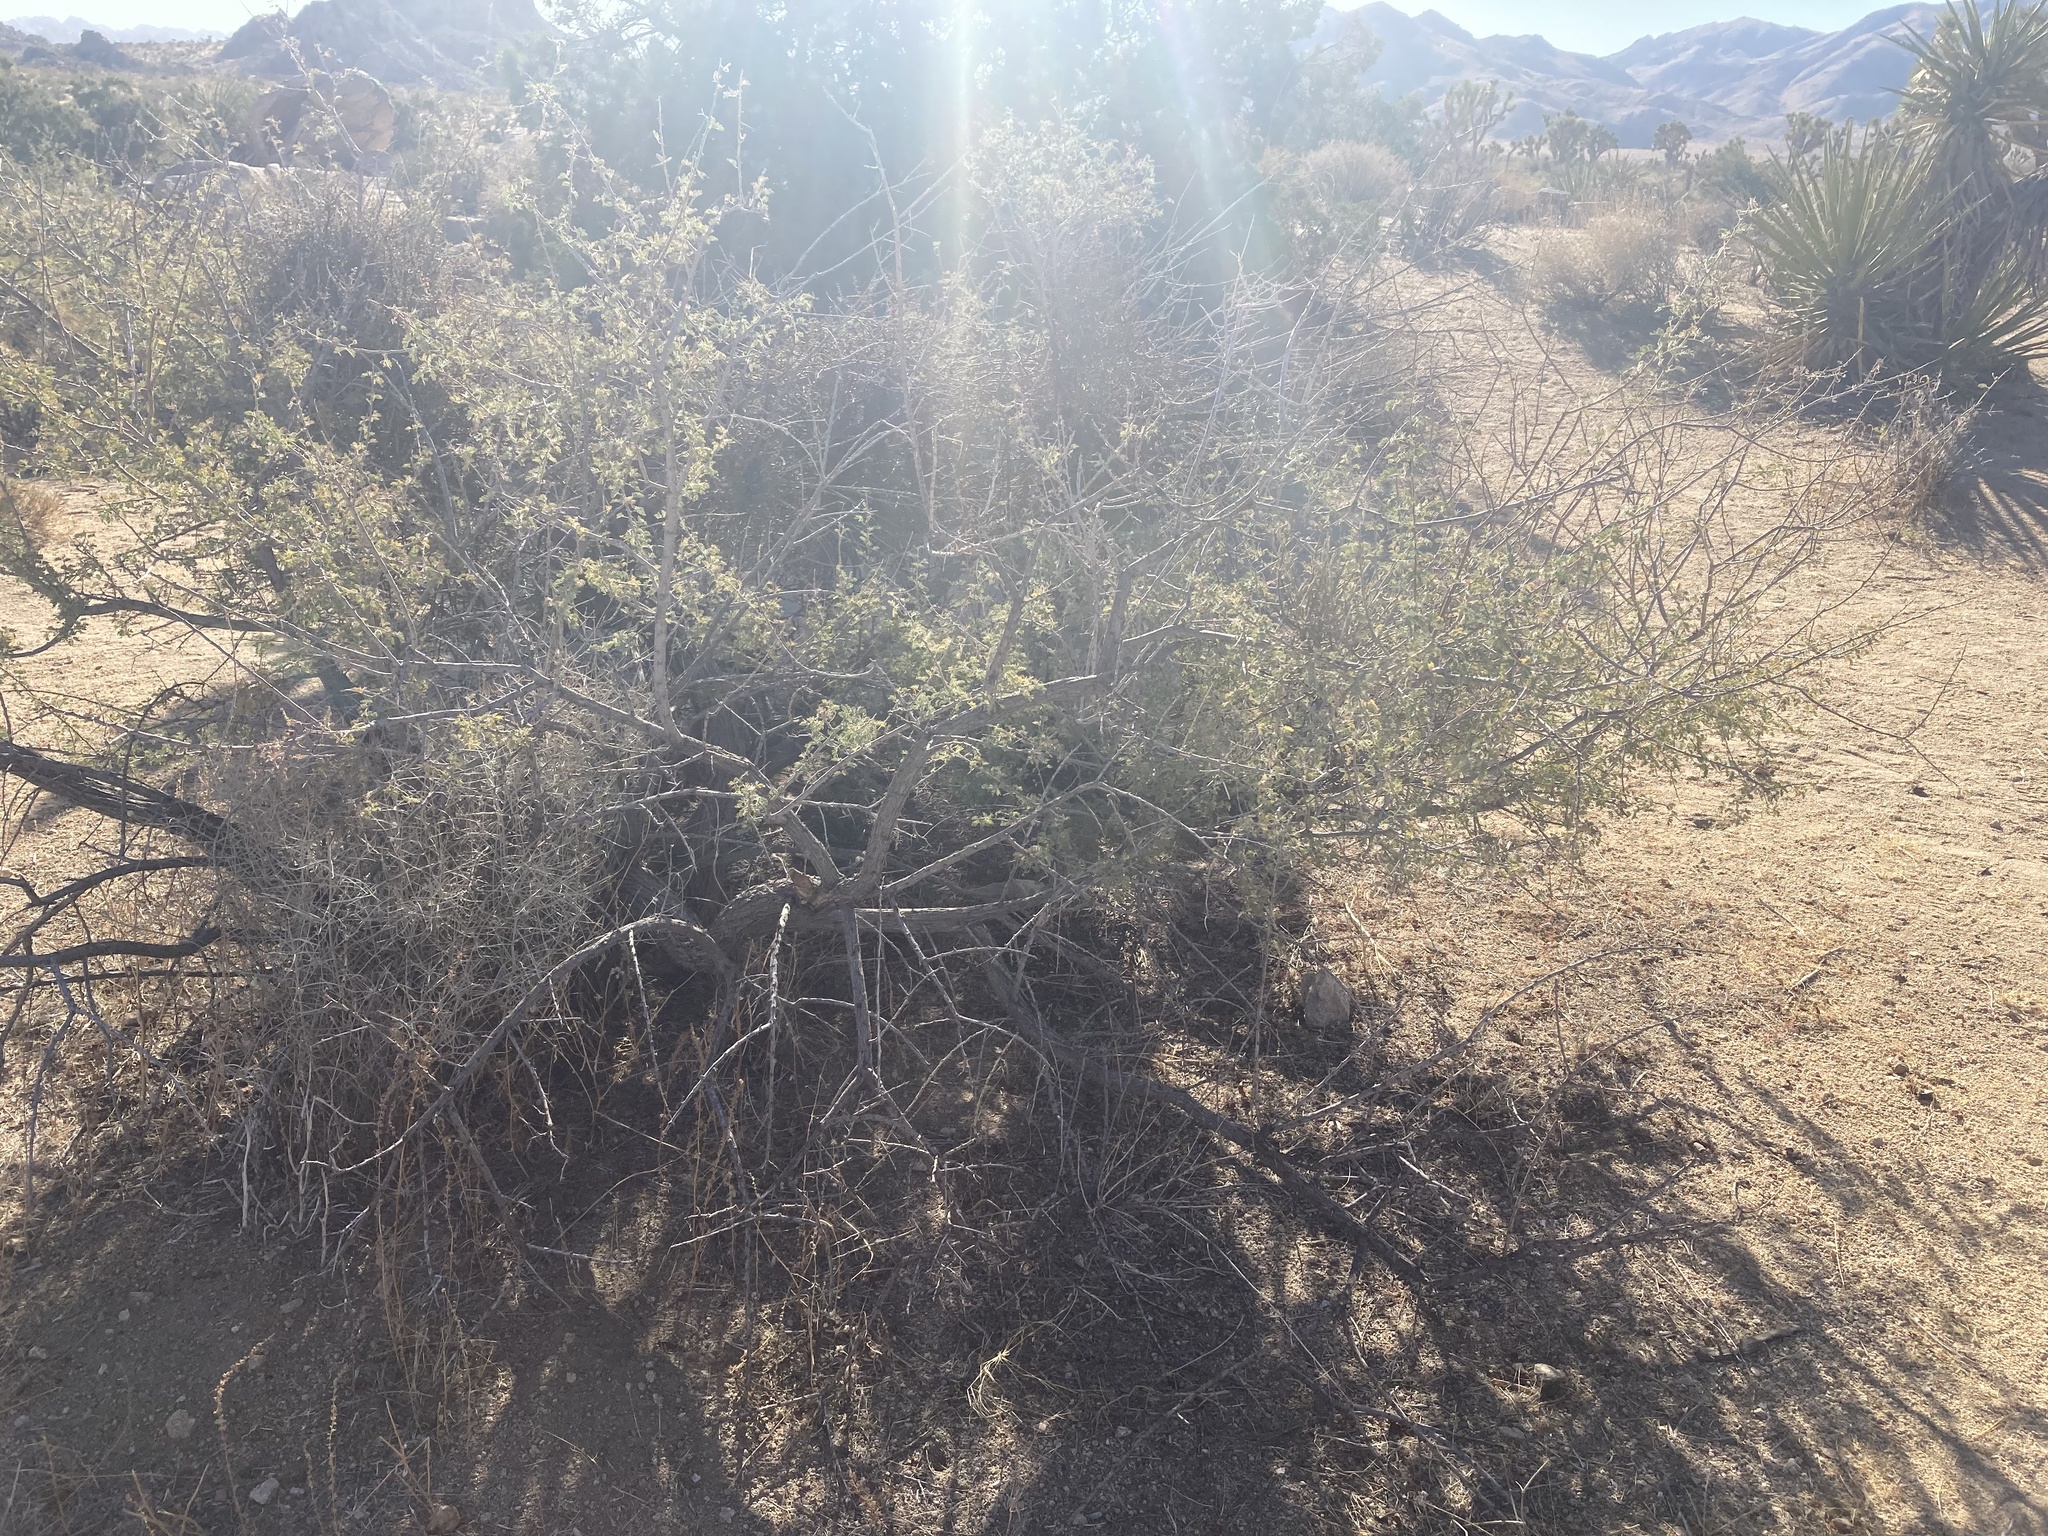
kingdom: Plantae
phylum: Tracheophyta
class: Magnoliopsida
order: Fabales
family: Fabaceae
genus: Senegalia
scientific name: Senegalia greggii
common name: Texas-mimosa
